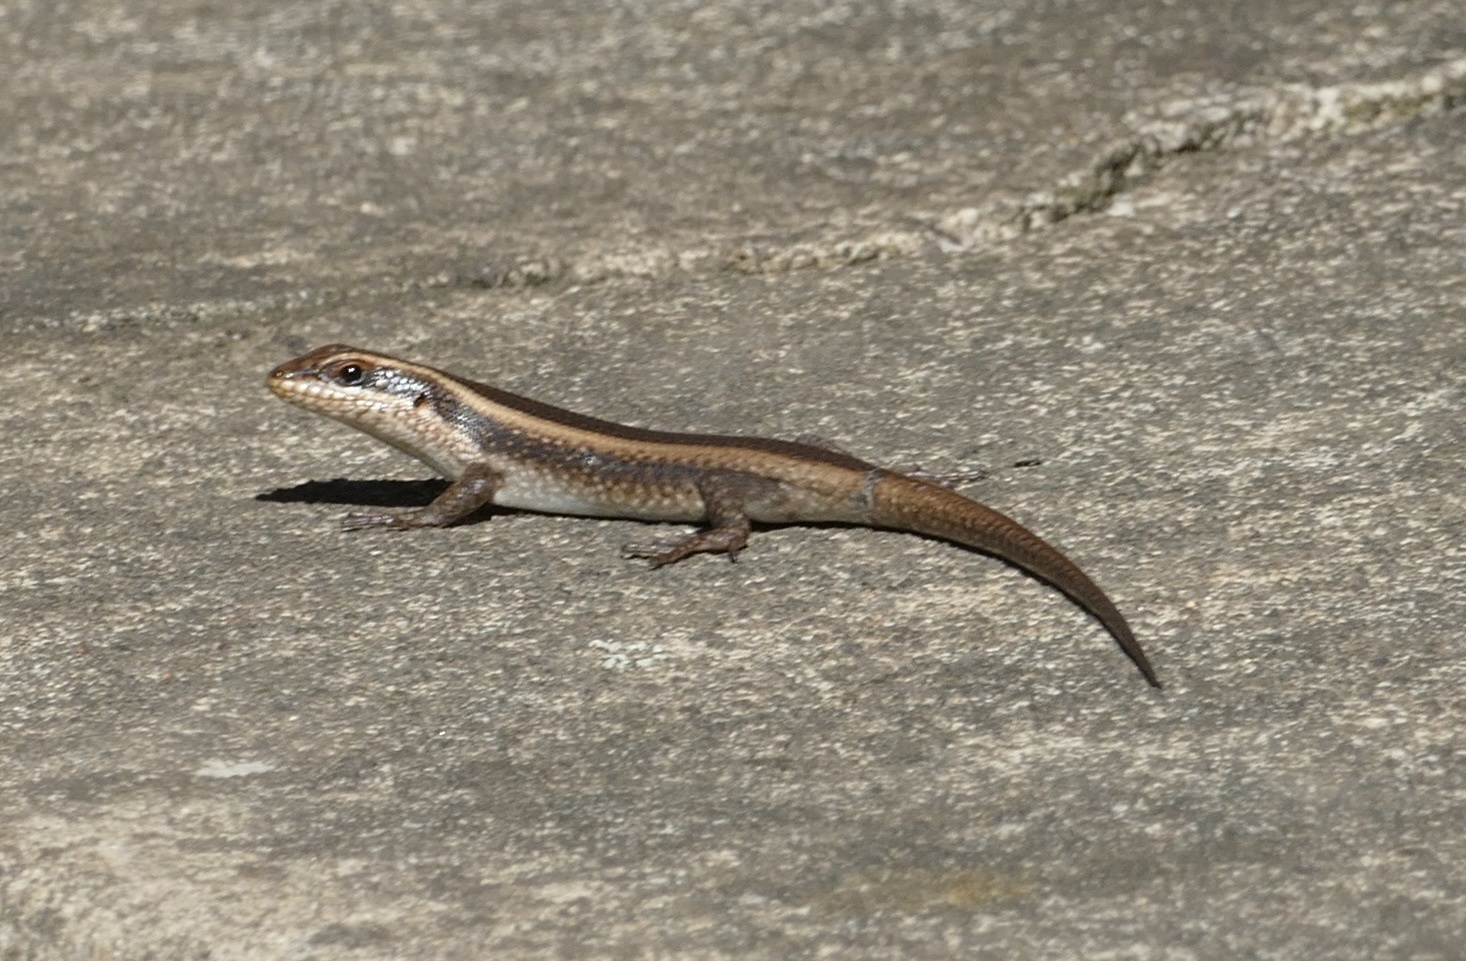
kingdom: Animalia
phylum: Chordata
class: Squamata
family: Scincidae
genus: Trachylepis
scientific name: Trachylepis striata
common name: African striped mabuya
